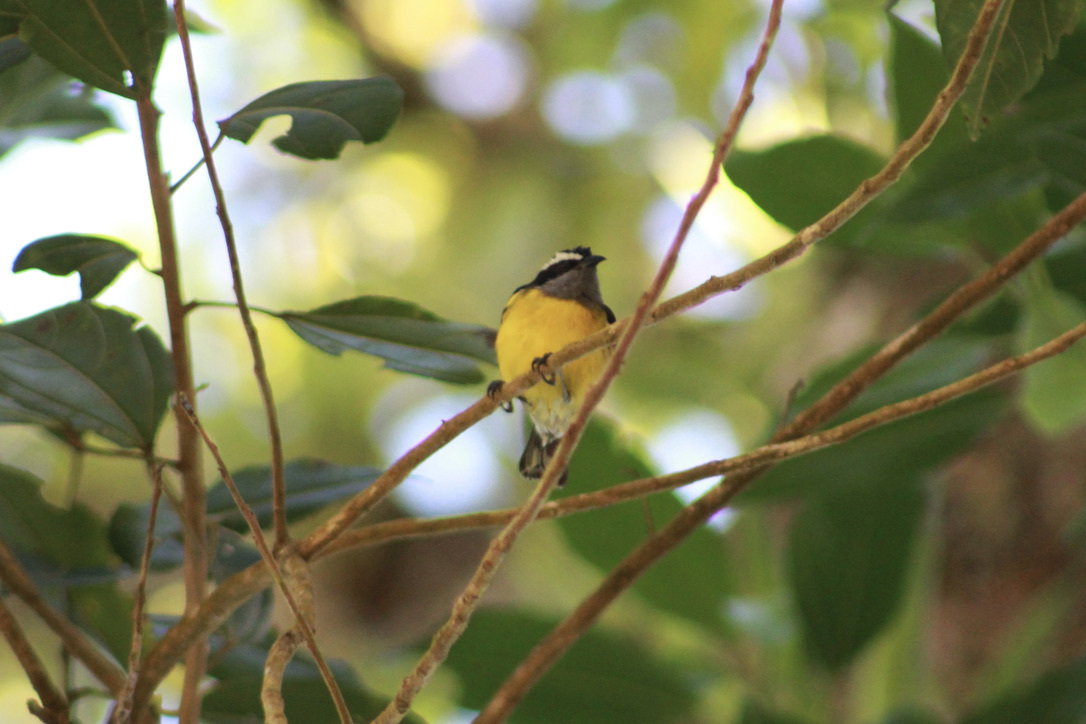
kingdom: Animalia
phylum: Chordata
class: Aves
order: Passeriformes
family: Thraupidae
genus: Coereba
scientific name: Coereba flaveola
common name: Bananaquit
